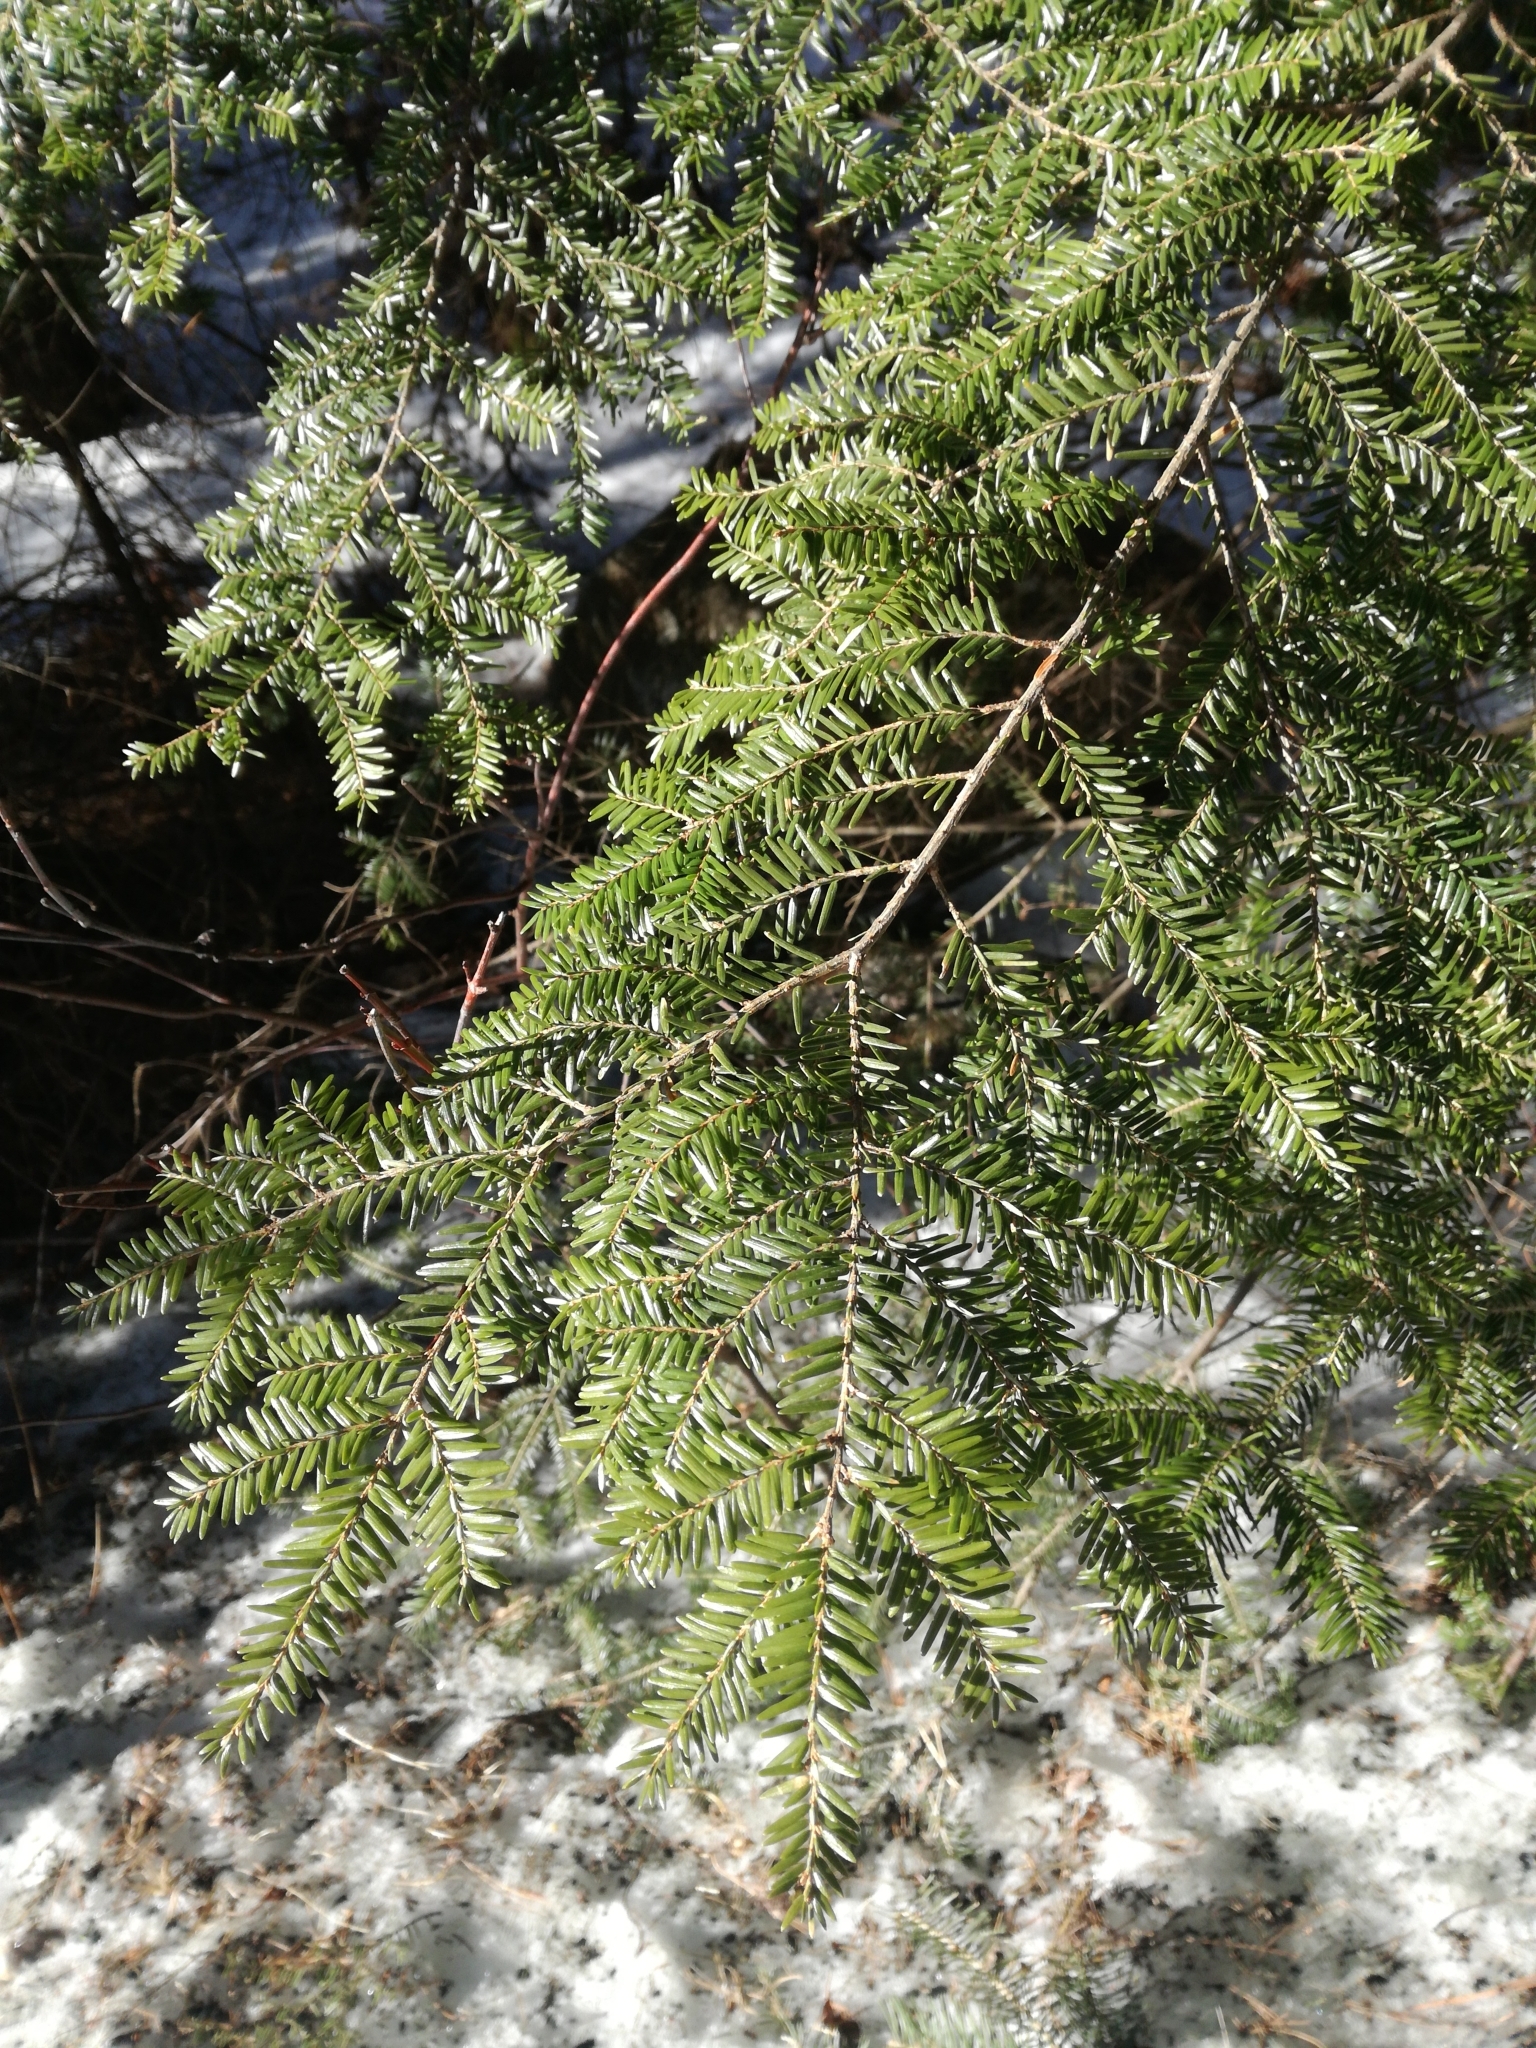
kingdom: Plantae
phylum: Tracheophyta
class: Pinopsida
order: Pinales
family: Pinaceae
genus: Tsuga
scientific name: Tsuga canadensis
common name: Eastern hemlock
